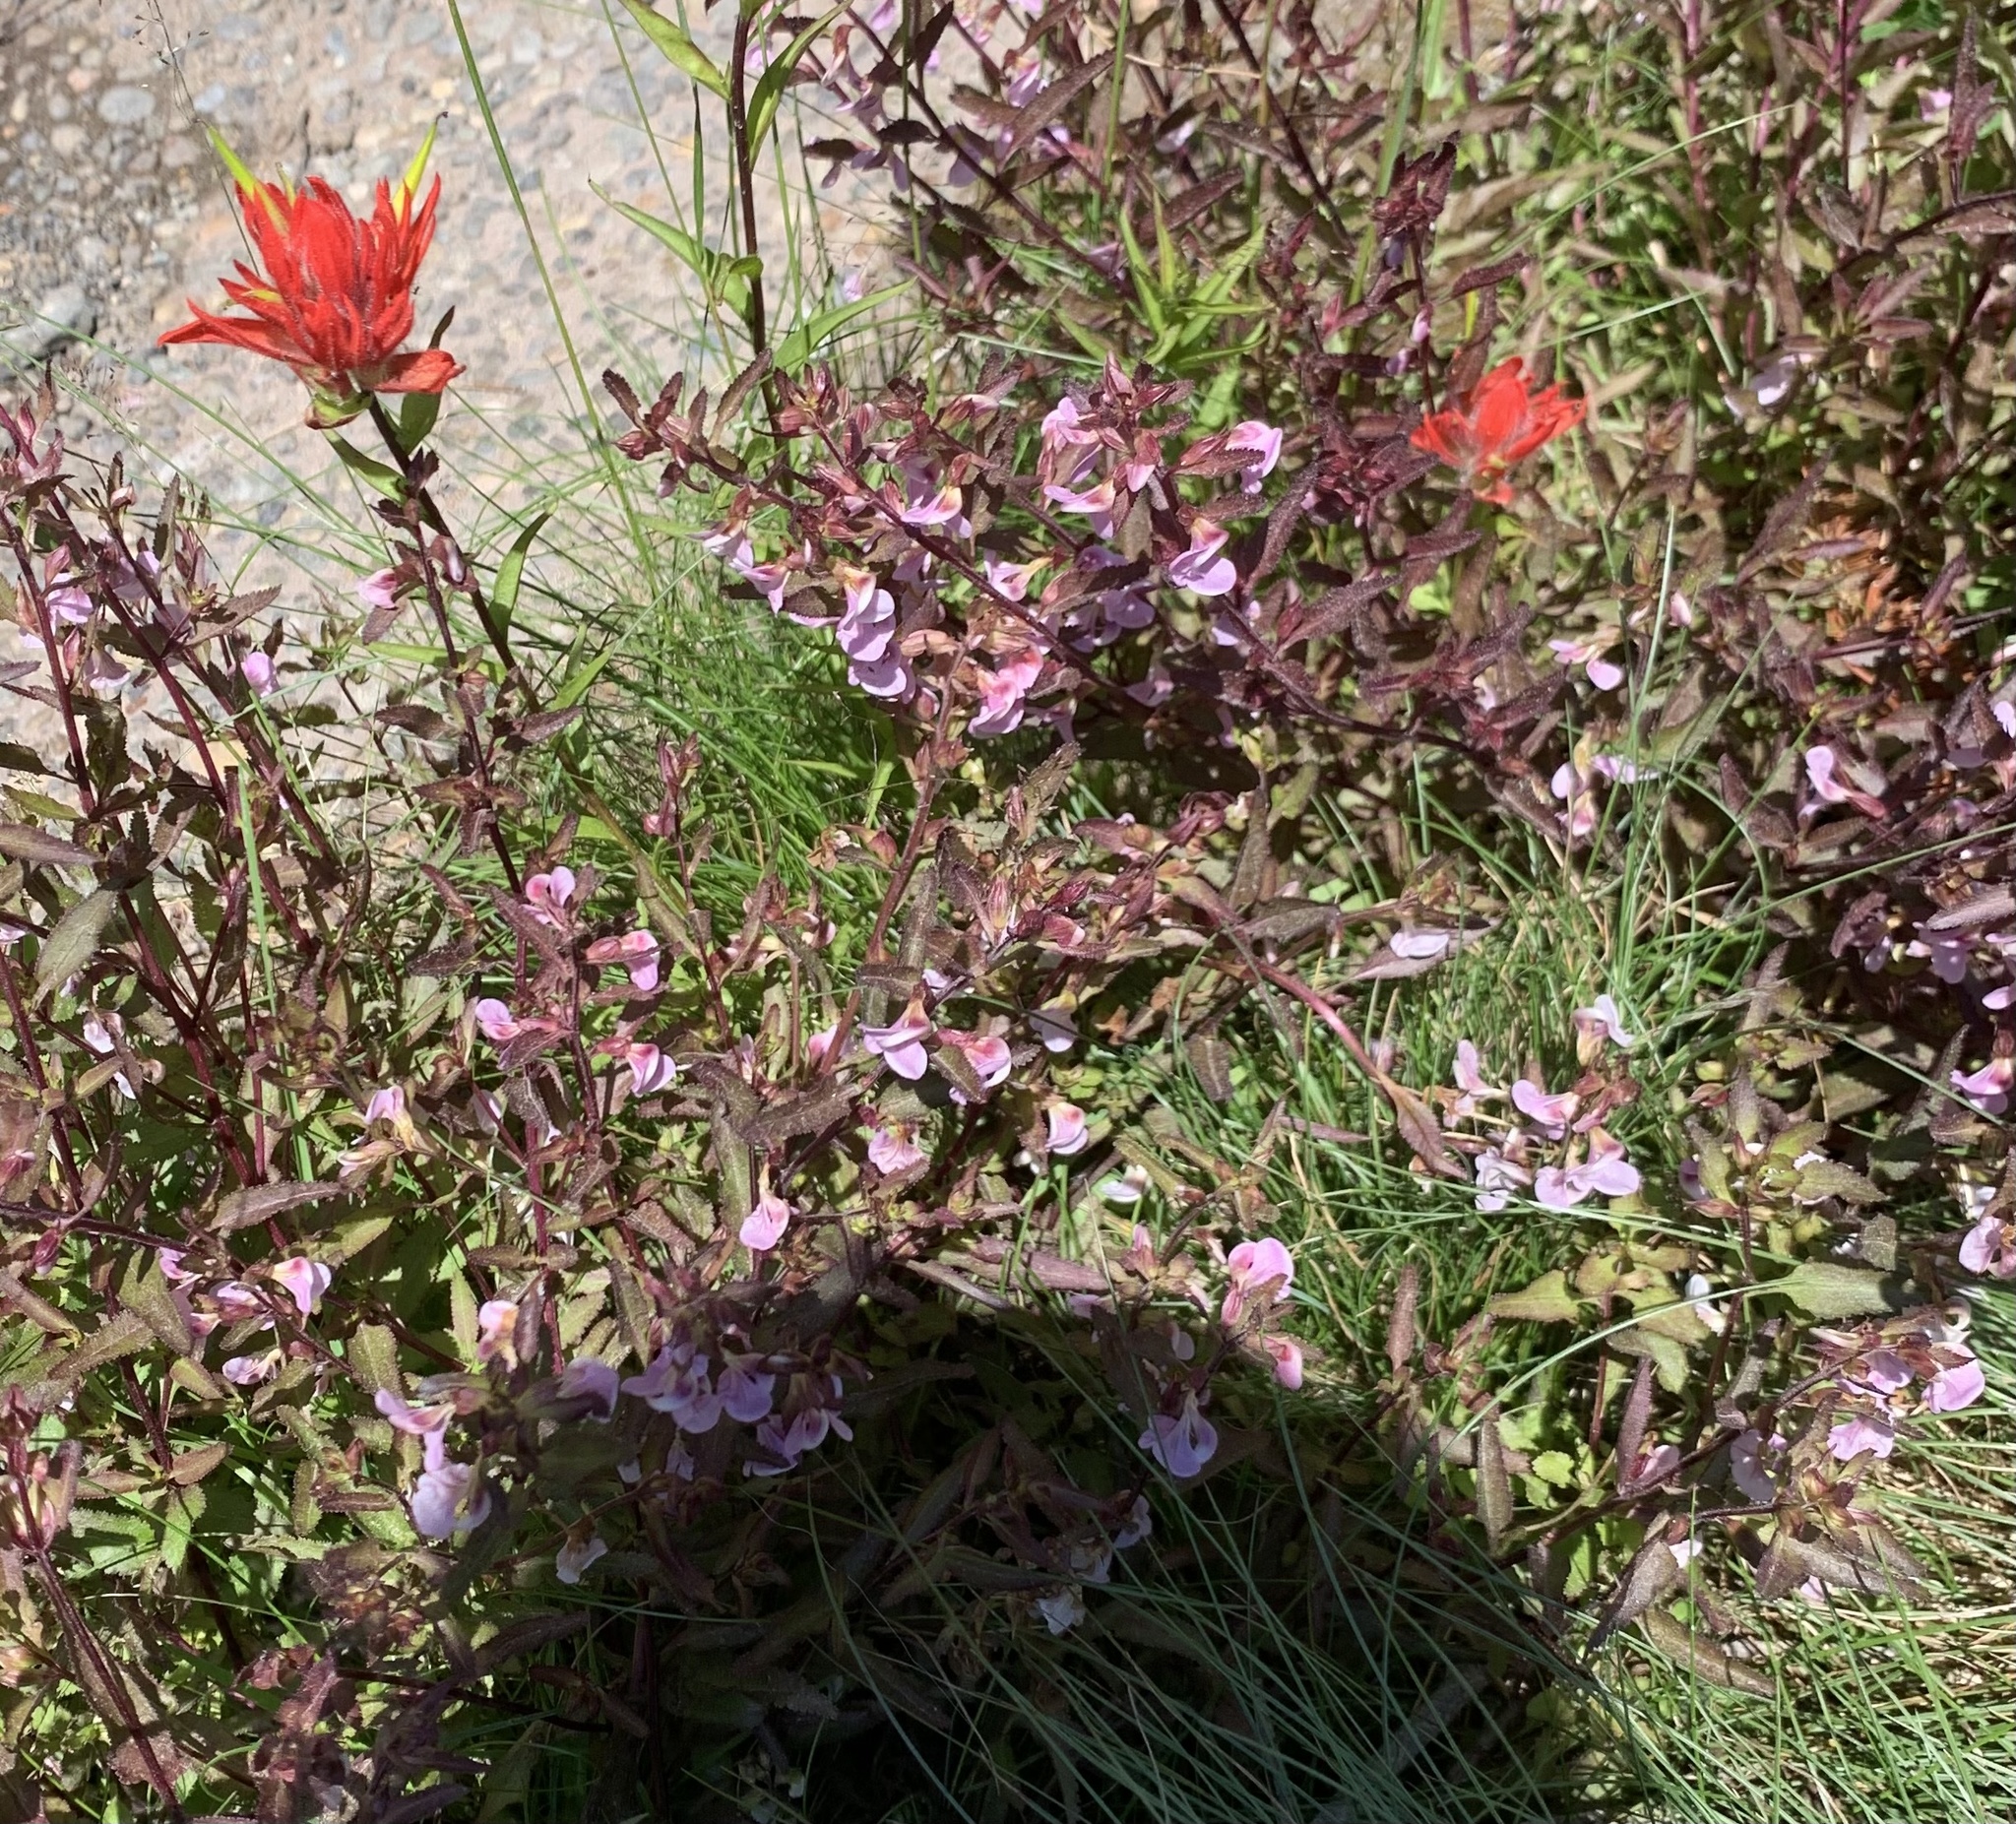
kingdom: Plantae
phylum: Tracheophyta
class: Magnoliopsida
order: Lamiales
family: Orobanchaceae
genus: Pedicularis
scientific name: Pedicularis racemosa
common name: Leafy lousewort
